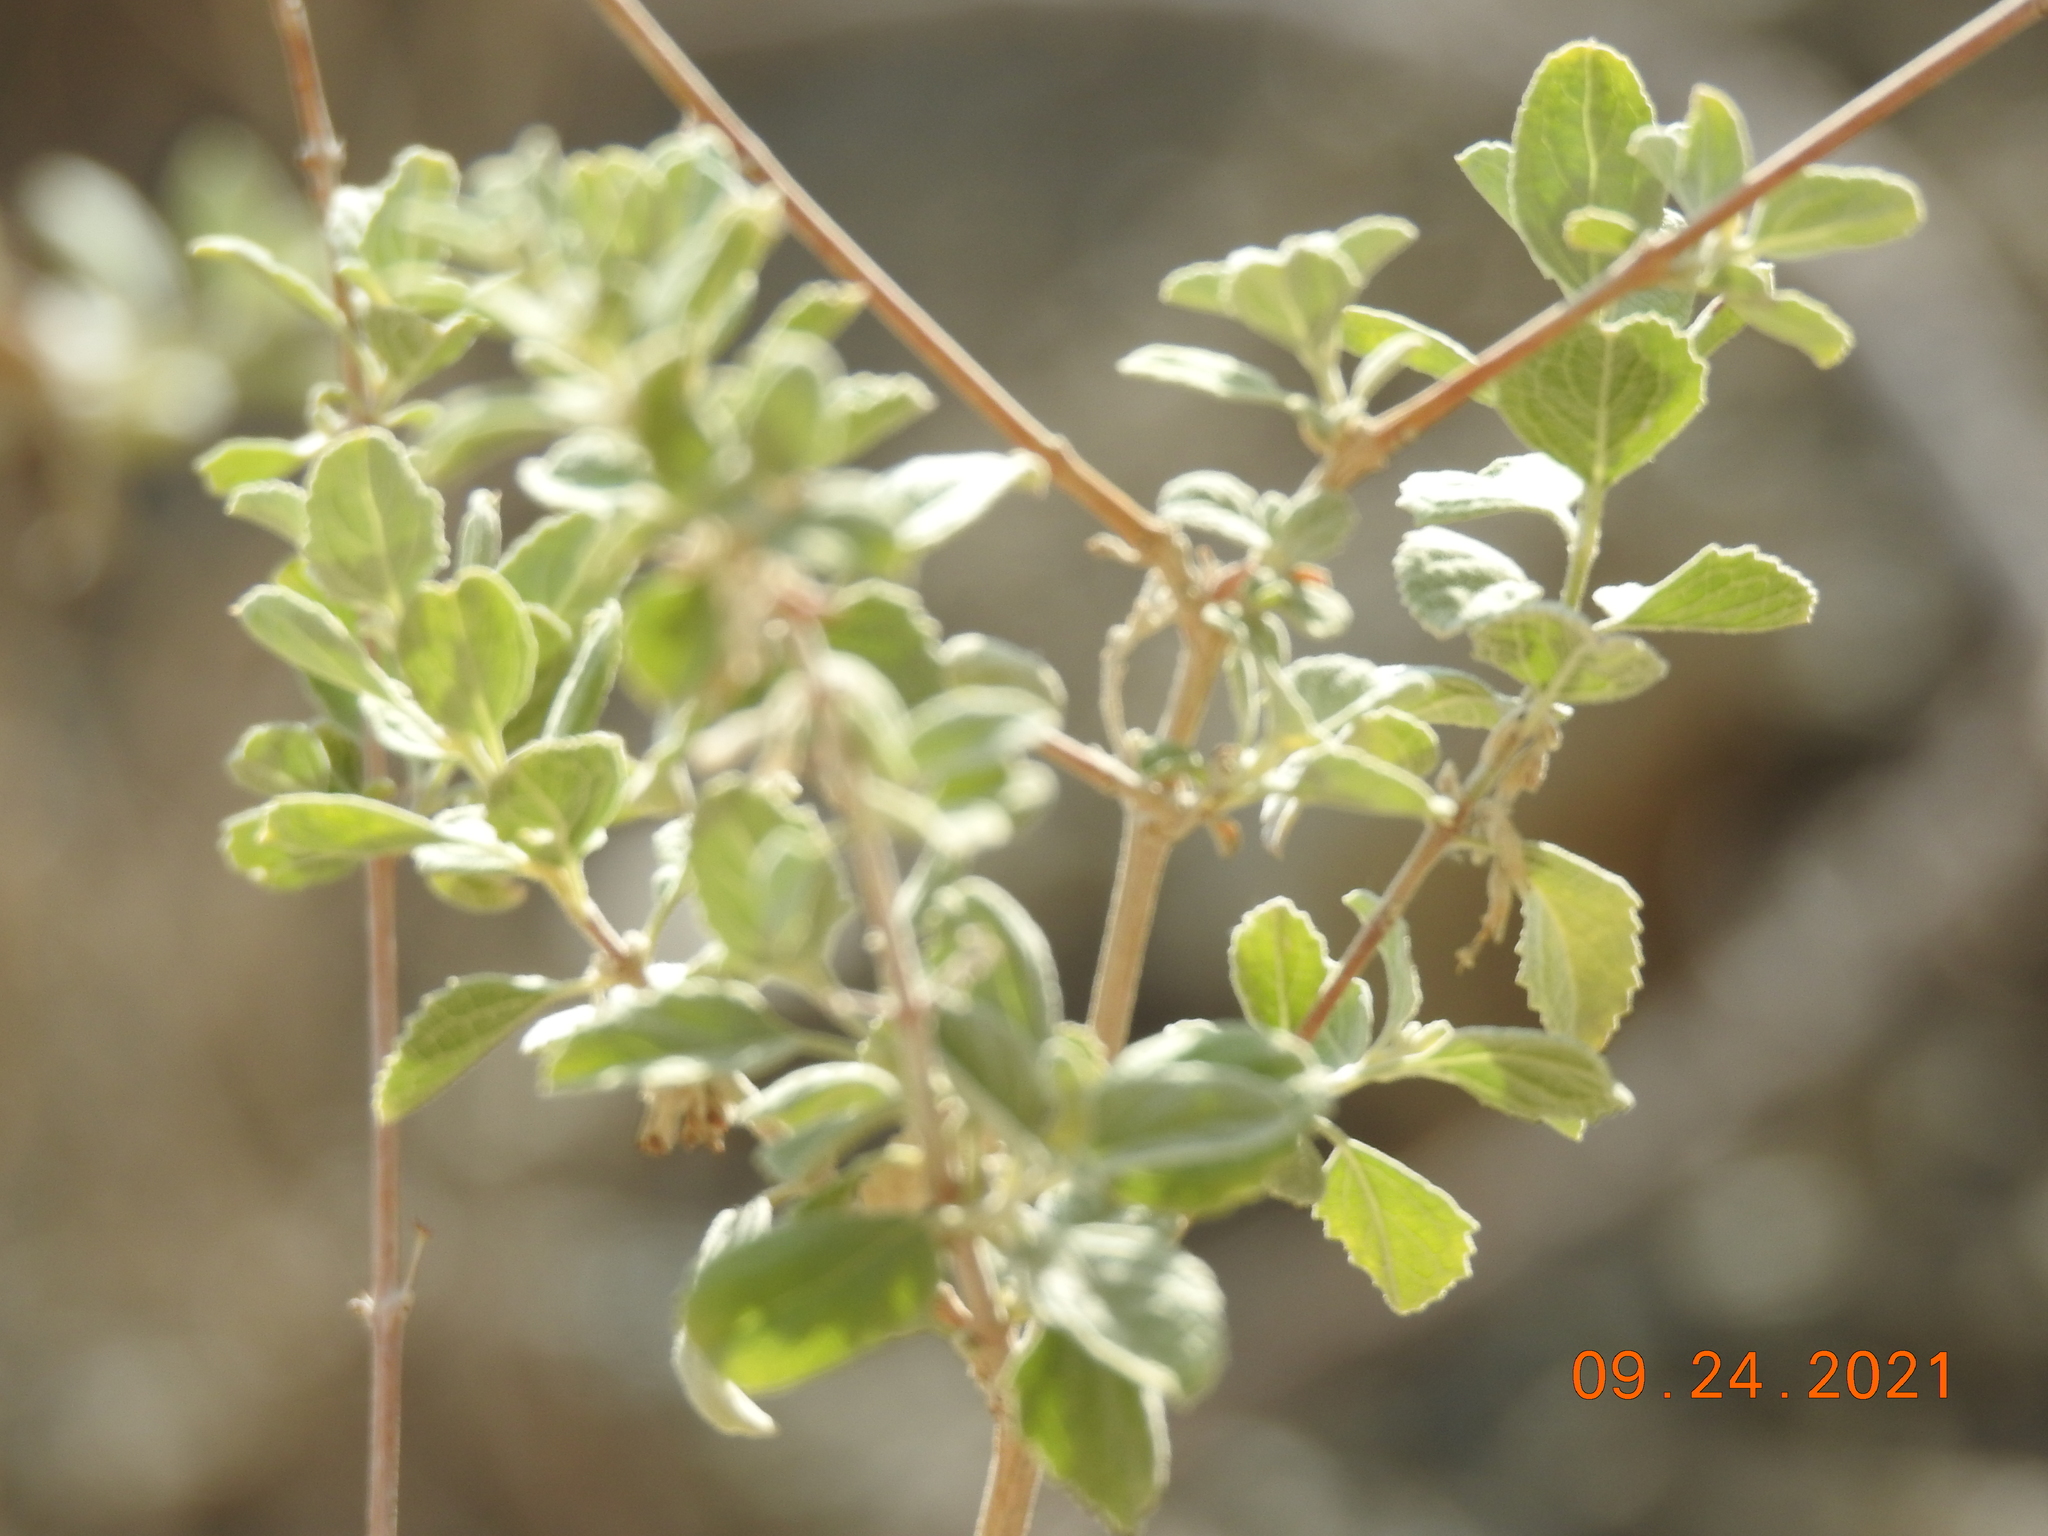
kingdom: Plantae
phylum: Tracheophyta
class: Magnoliopsida
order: Lamiales
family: Lamiaceae
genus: Condea
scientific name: Condea emoryi
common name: Chia
